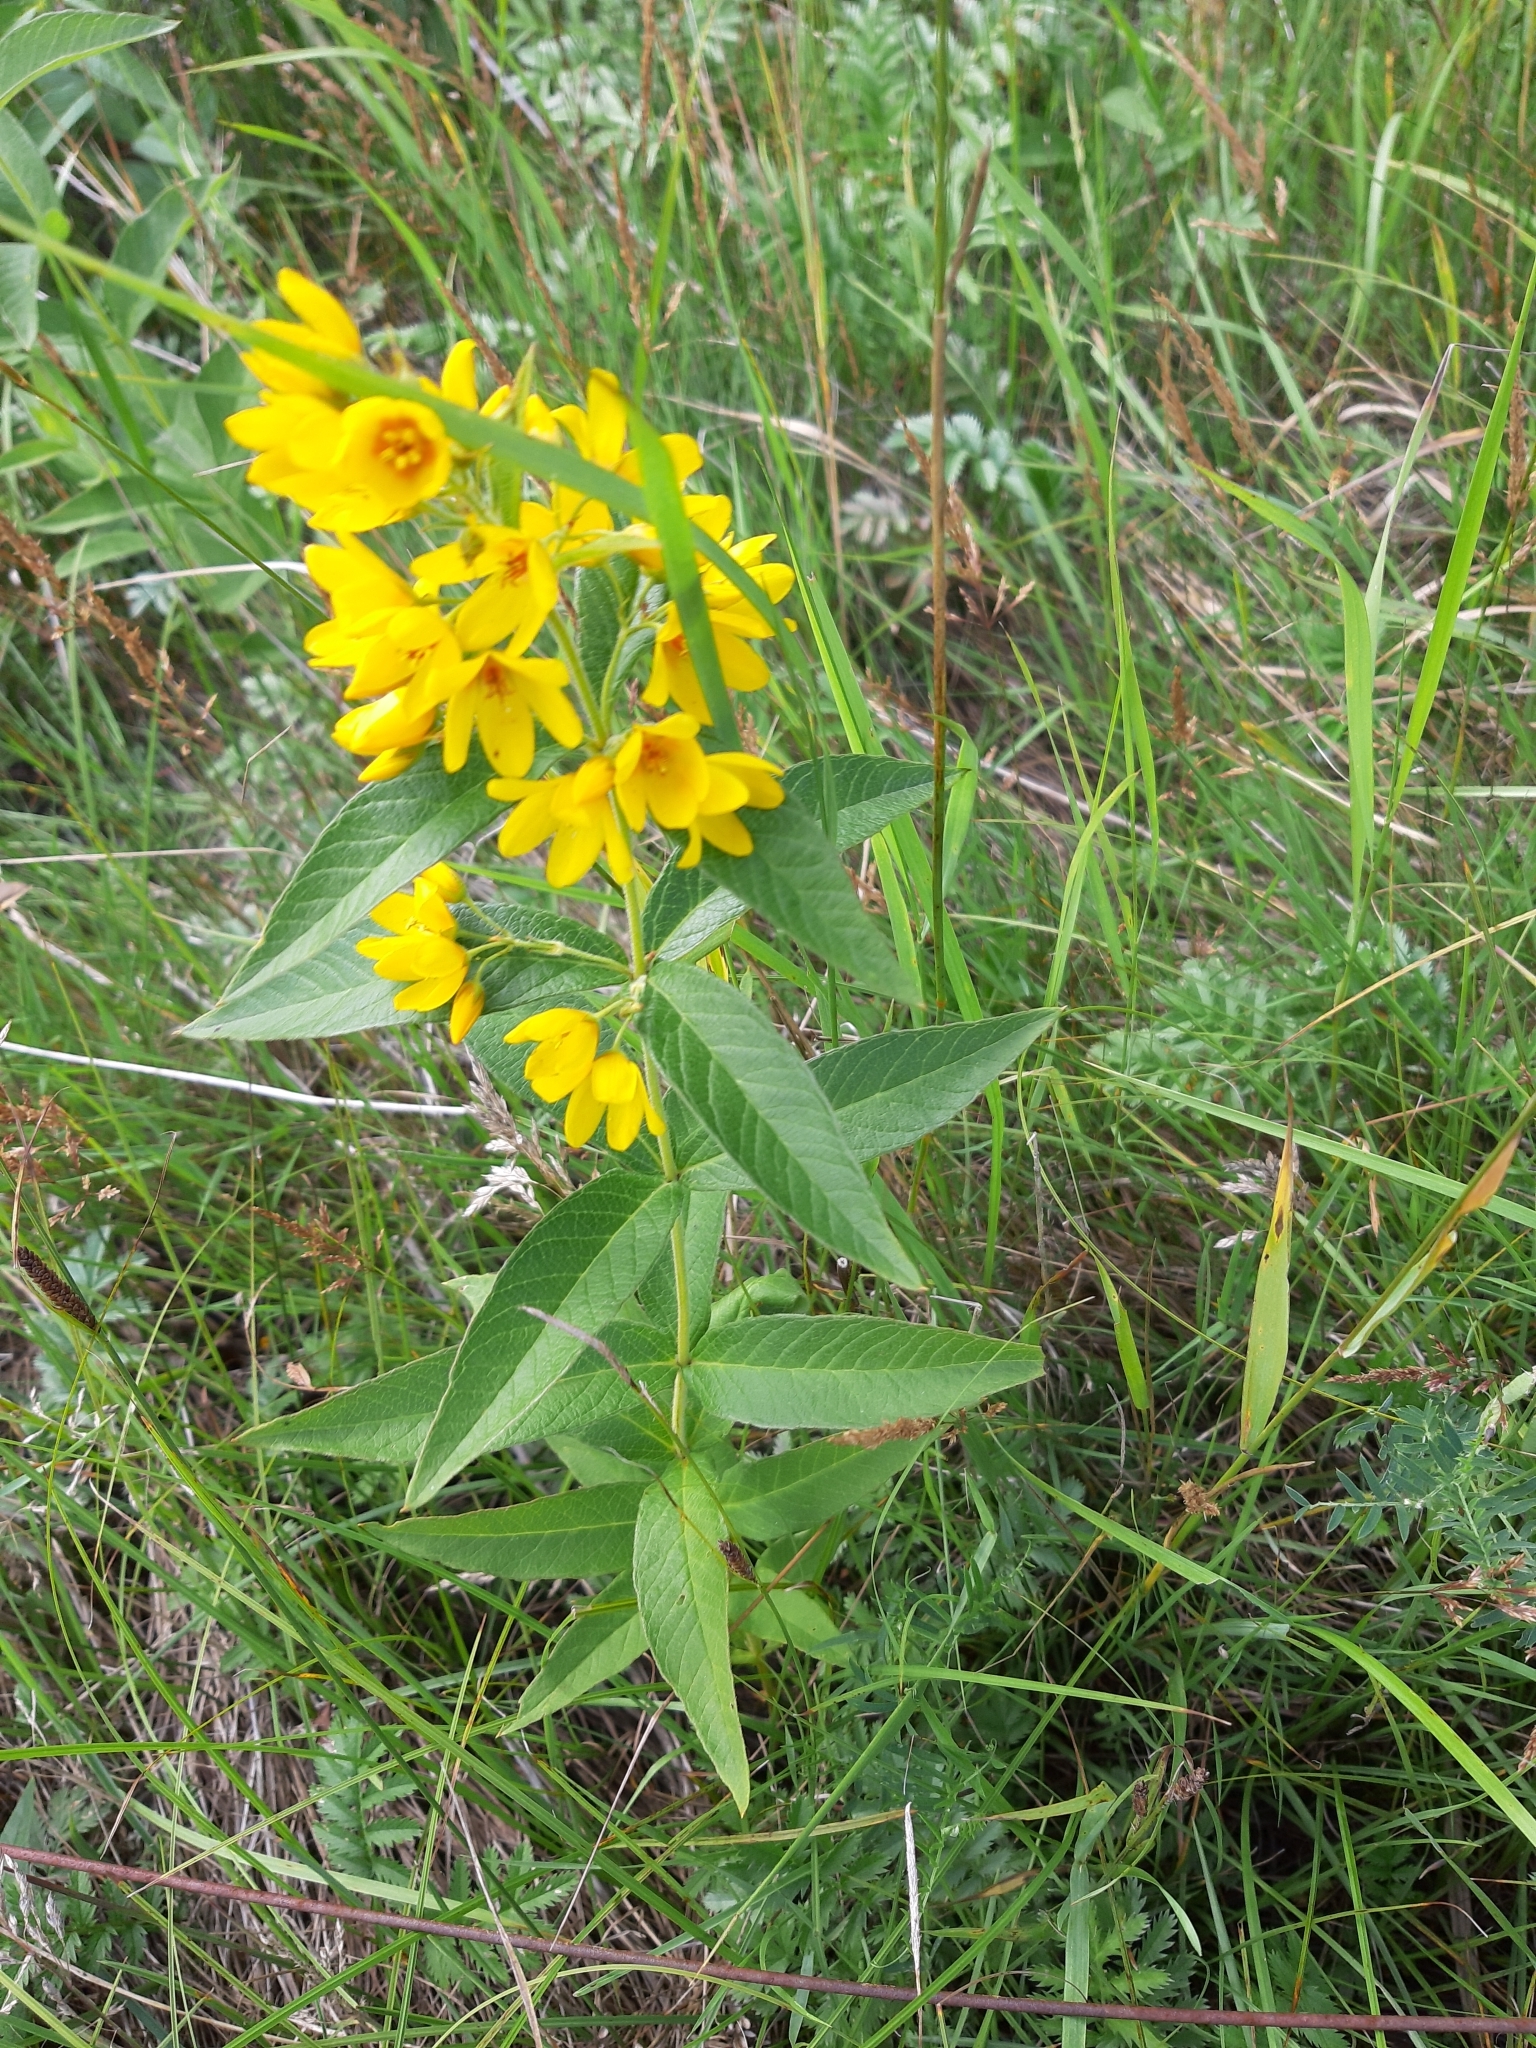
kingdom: Plantae
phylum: Tracheophyta
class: Magnoliopsida
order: Ericales
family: Primulaceae
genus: Lysimachia
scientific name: Lysimachia vulgaris
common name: Yellow loosestrife
